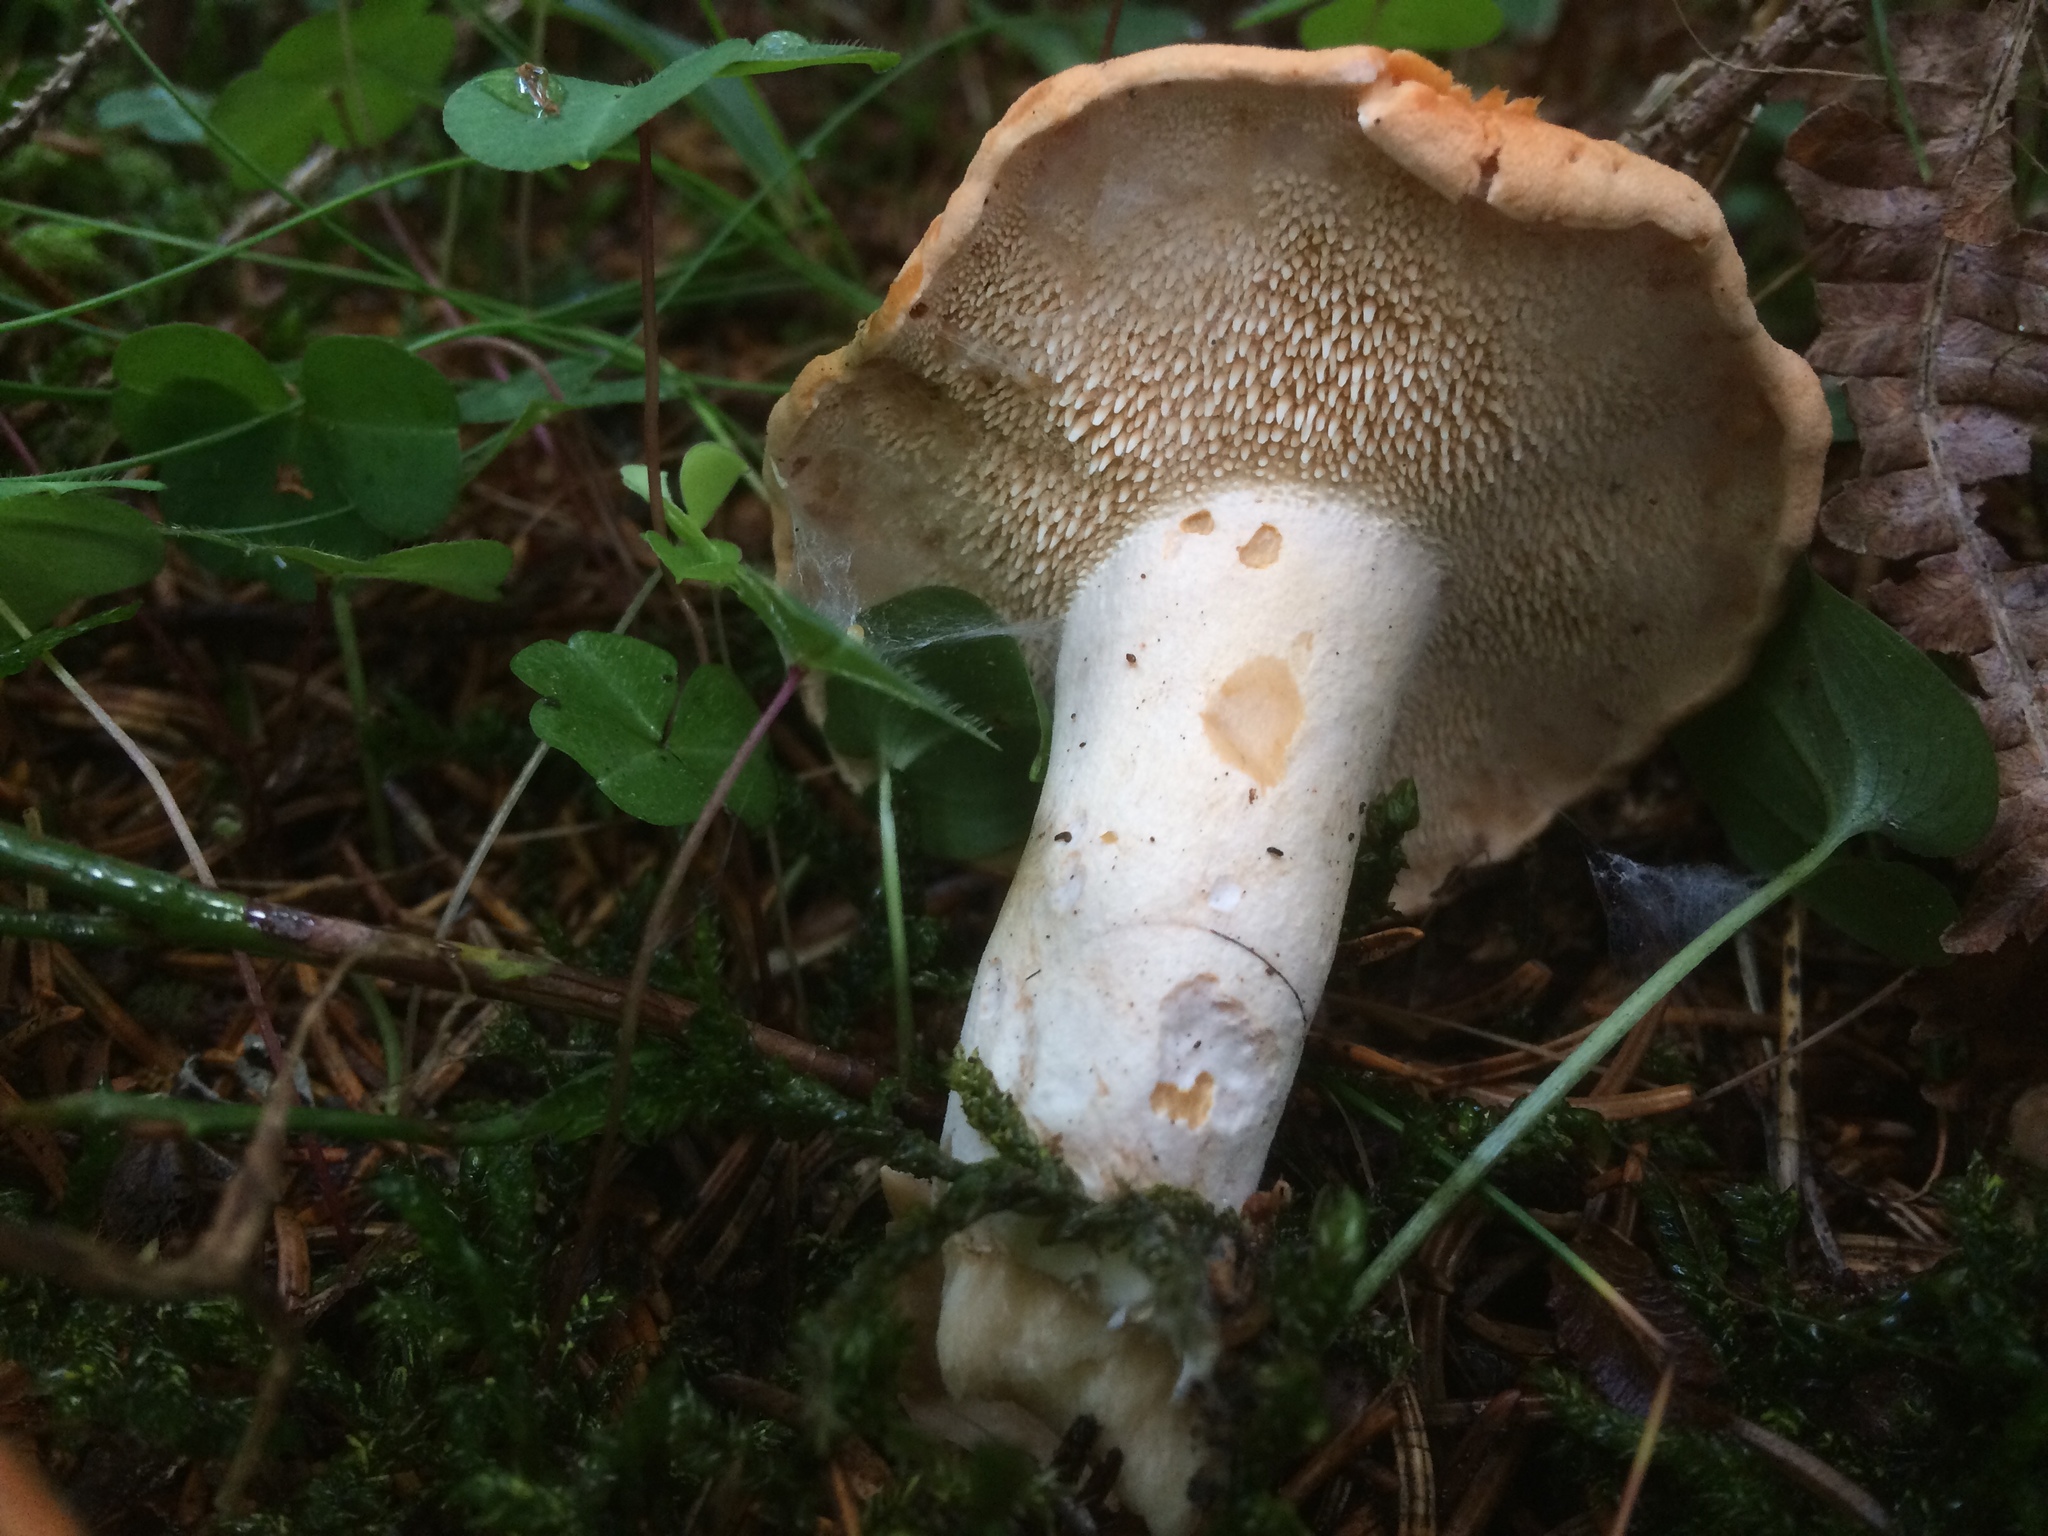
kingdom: Fungi
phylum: Basidiomycota
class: Agaricomycetes
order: Cantharellales
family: Hydnaceae
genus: Hydnum
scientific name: Hydnum rufescens
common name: Terracotta hedgehog
